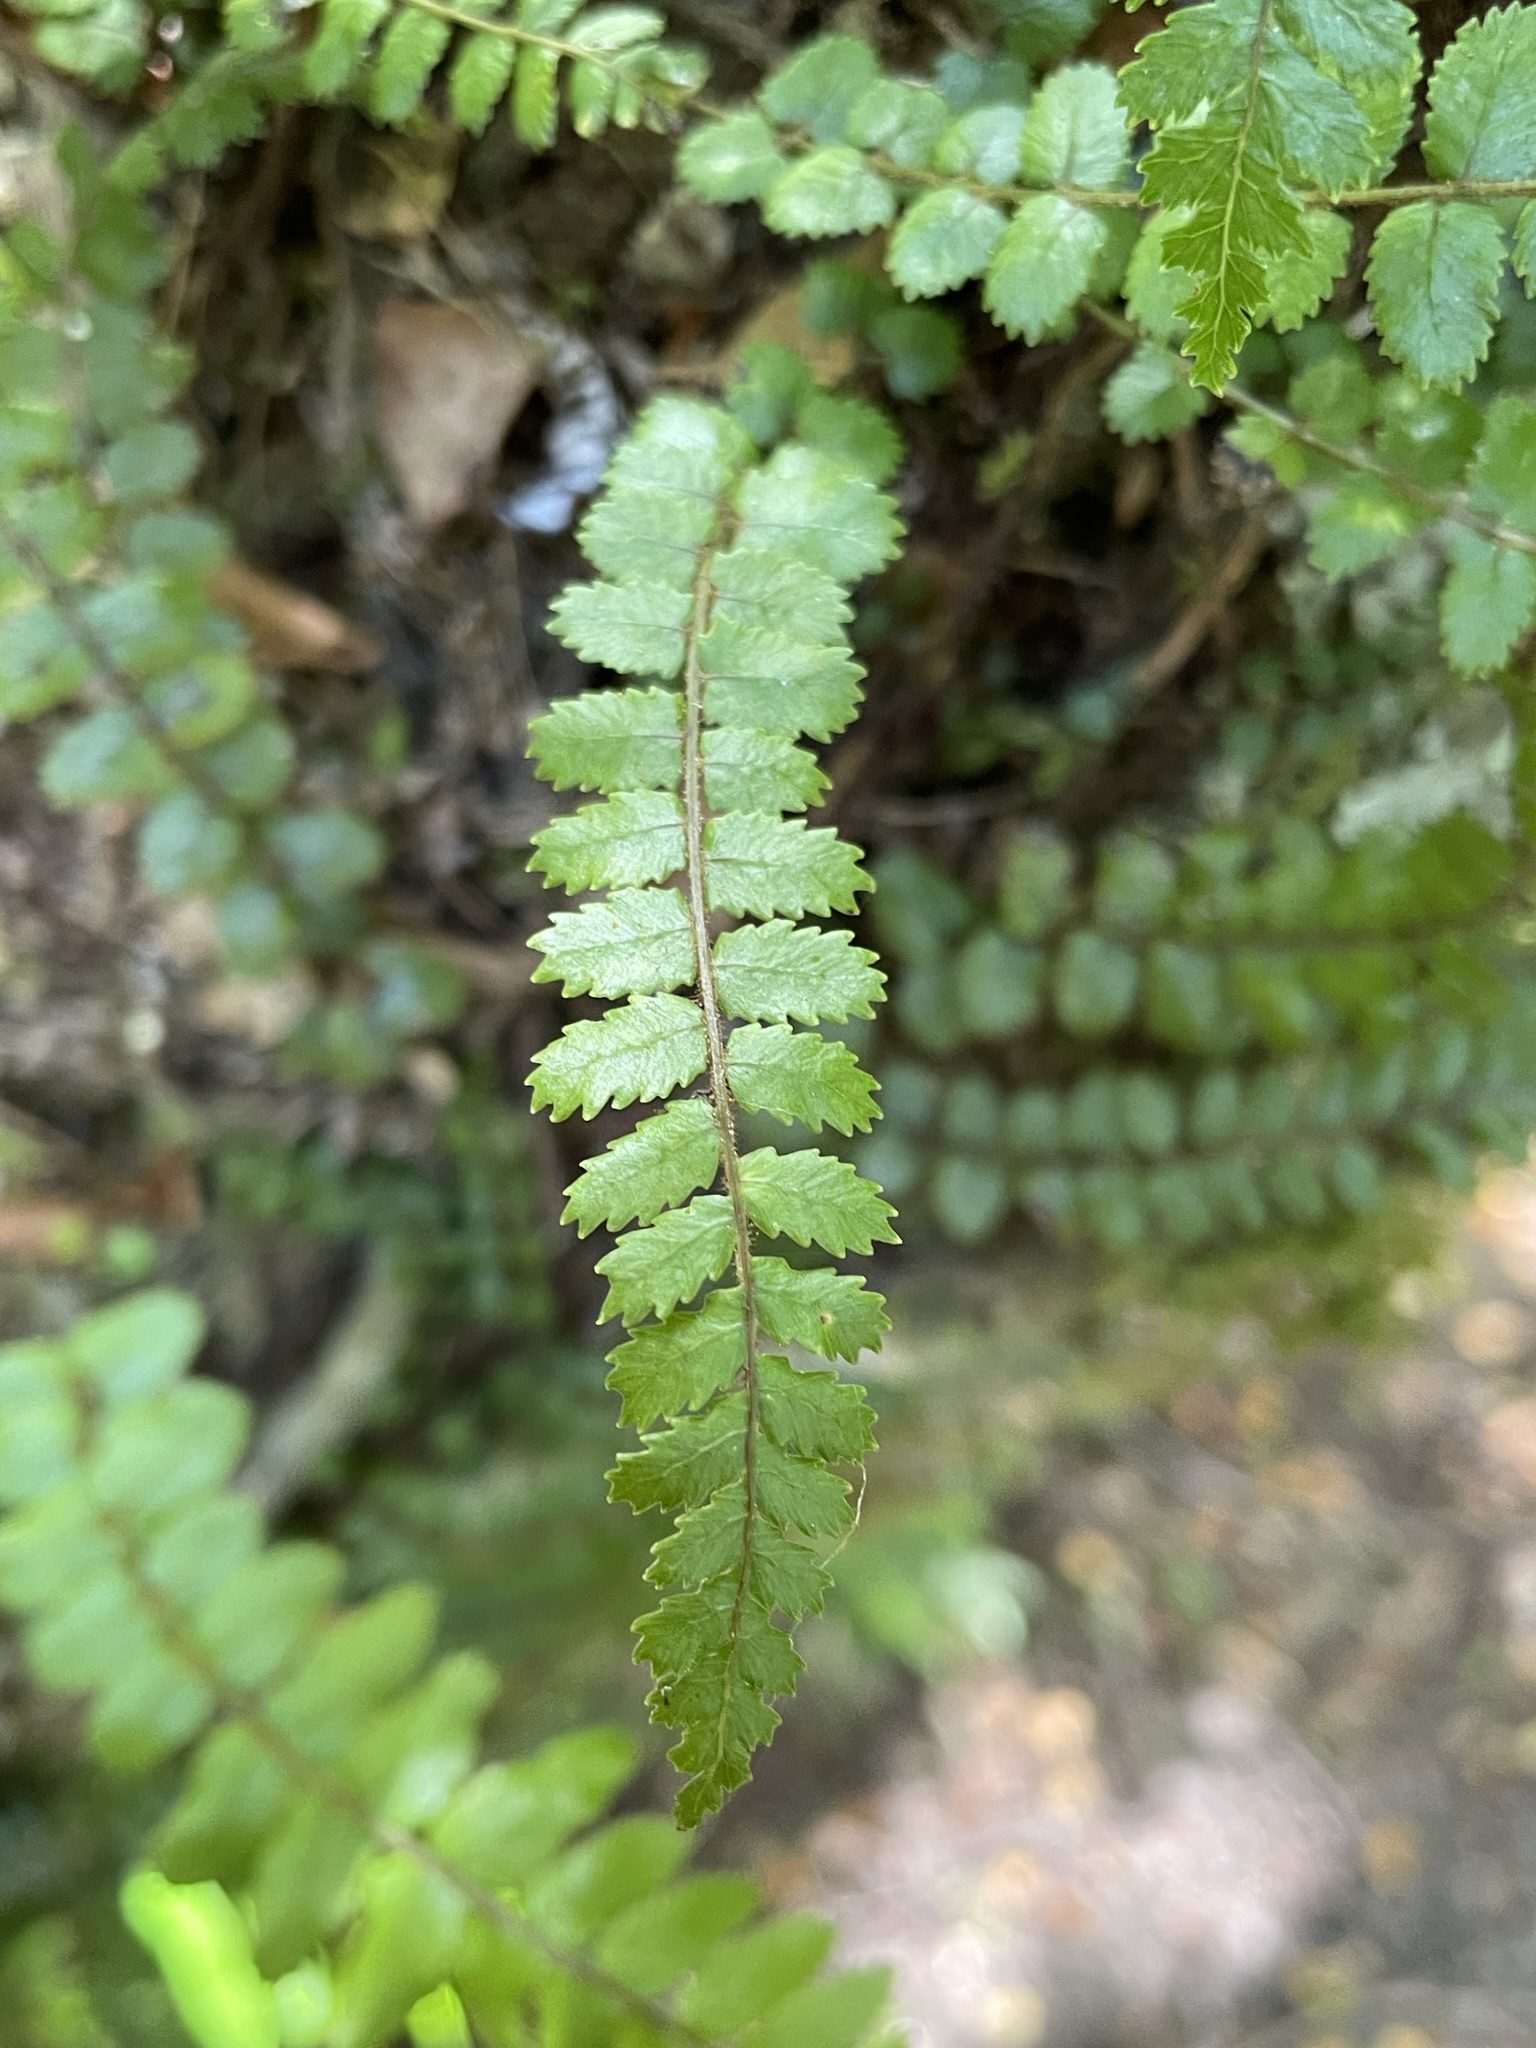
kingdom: Plantae
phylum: Tracheophyta
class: Polypodiopsida
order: Polypodiales
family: Blechnaceae
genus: Icarus
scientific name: Icarus filiformis
